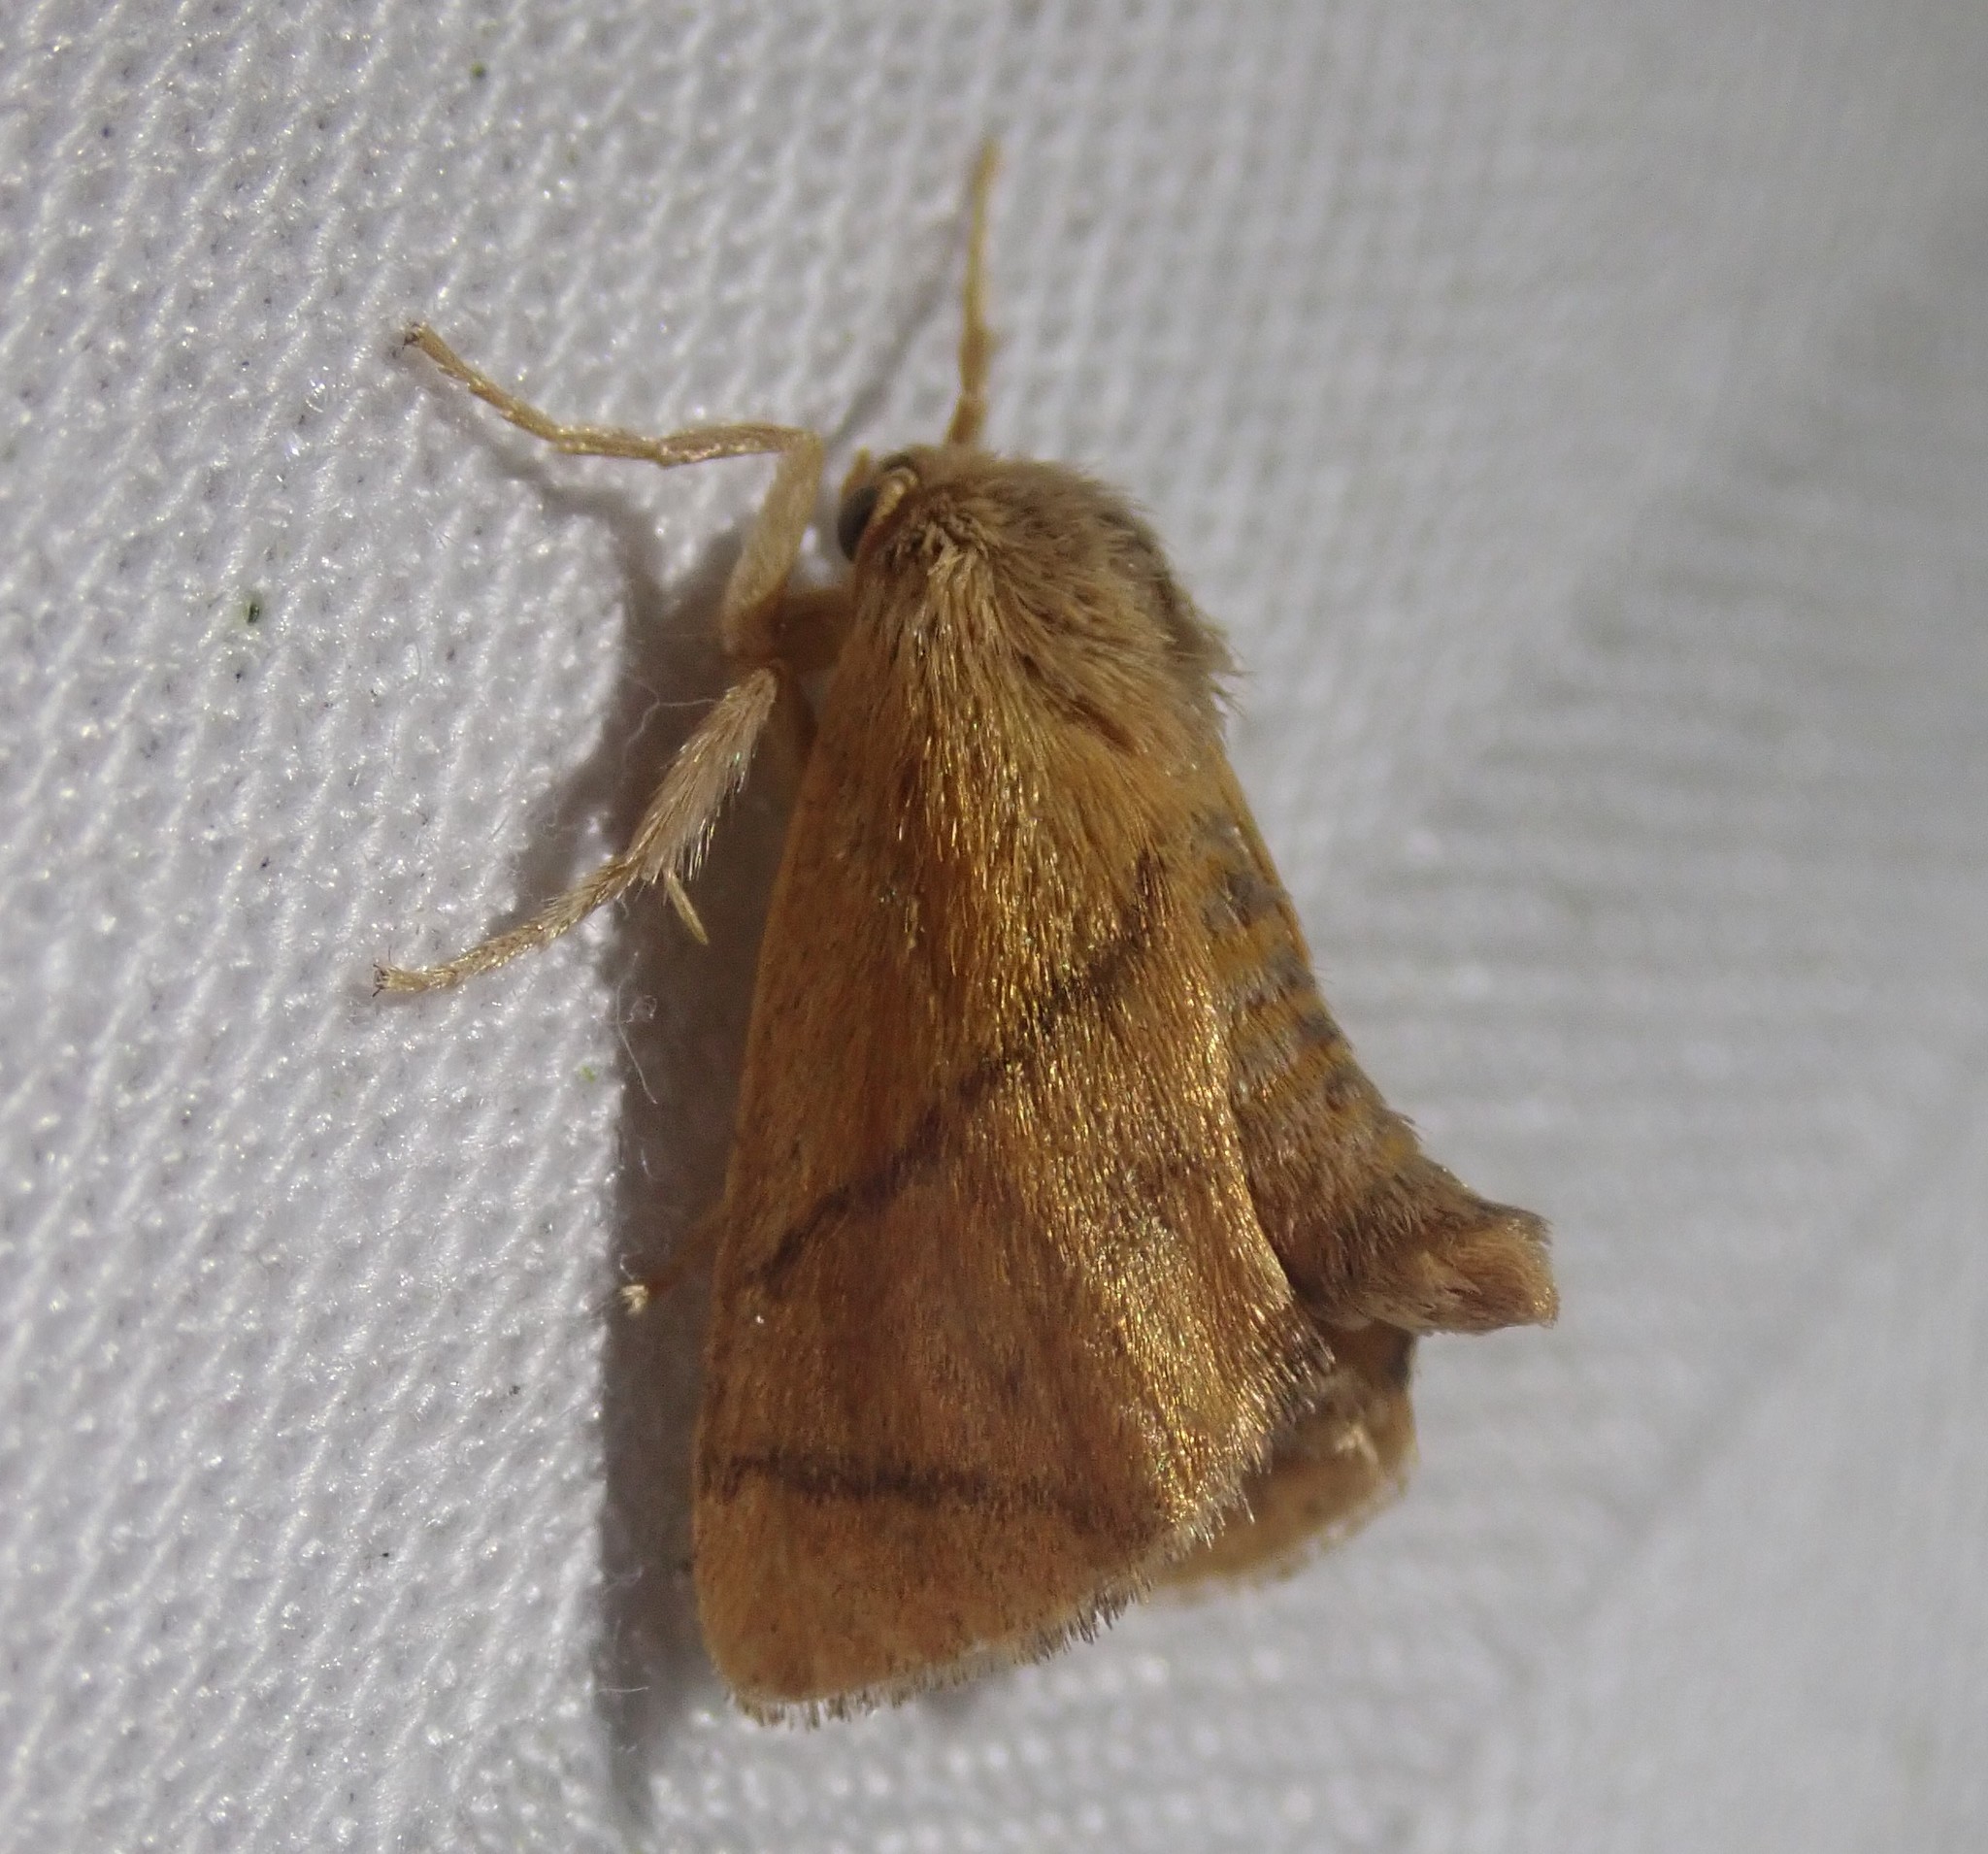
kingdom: Animalia
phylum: Arthropoda
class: Insecta
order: Lepidoptera
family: Limacodidae
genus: Apoda
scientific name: Apoda limacodes
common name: Festoon
